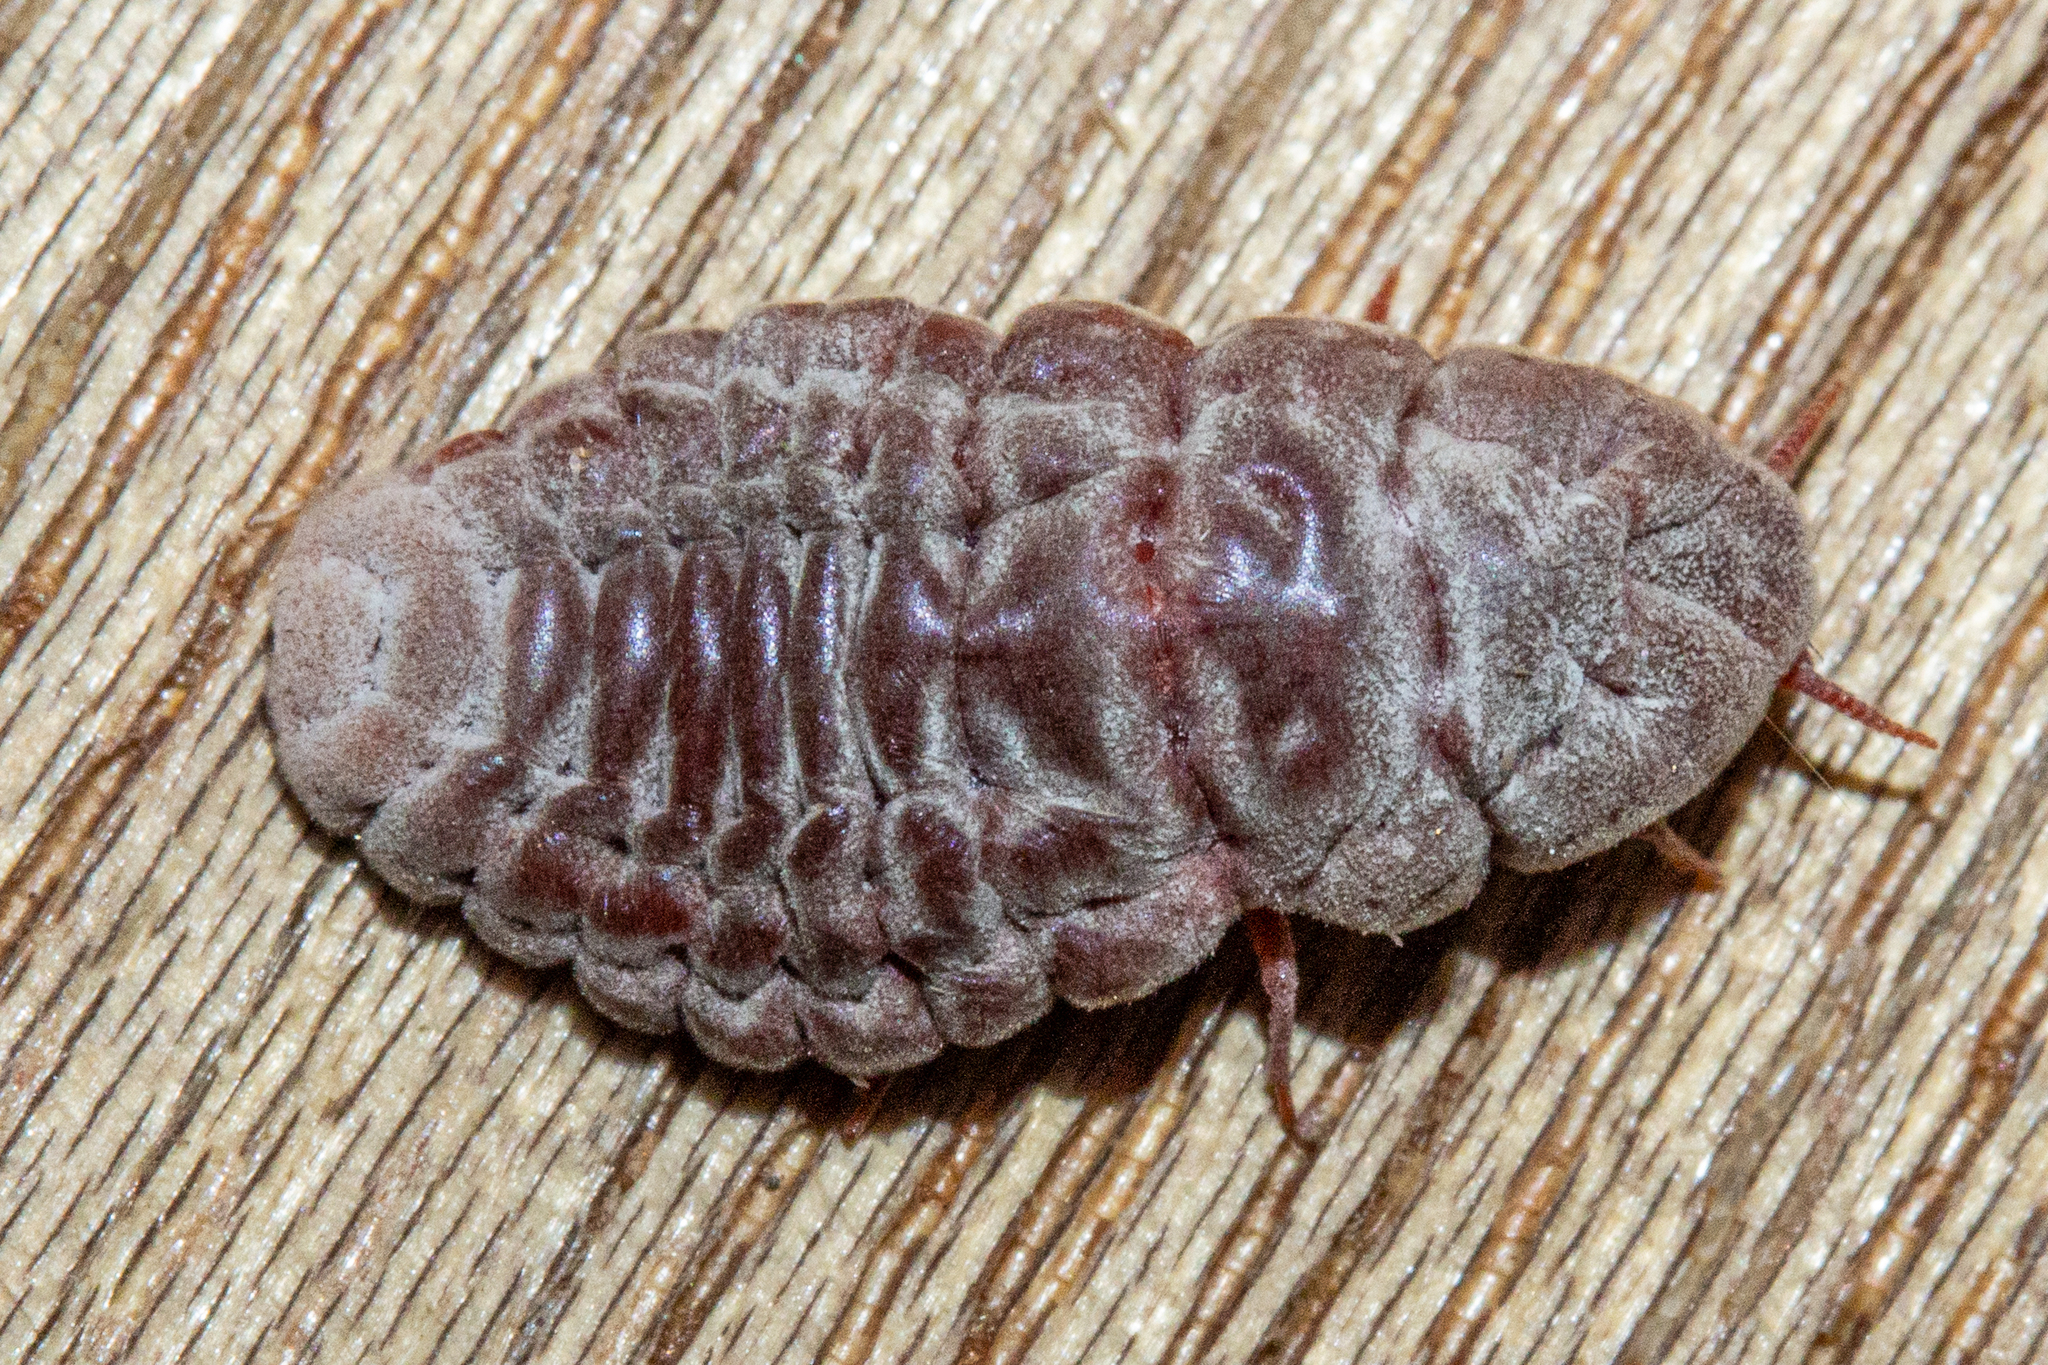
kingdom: Animalia
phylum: Arthropoda
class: Insecta
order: Hemiptera
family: Margarodidae
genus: Coelostomidia
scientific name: Coelostomidia zealandica
